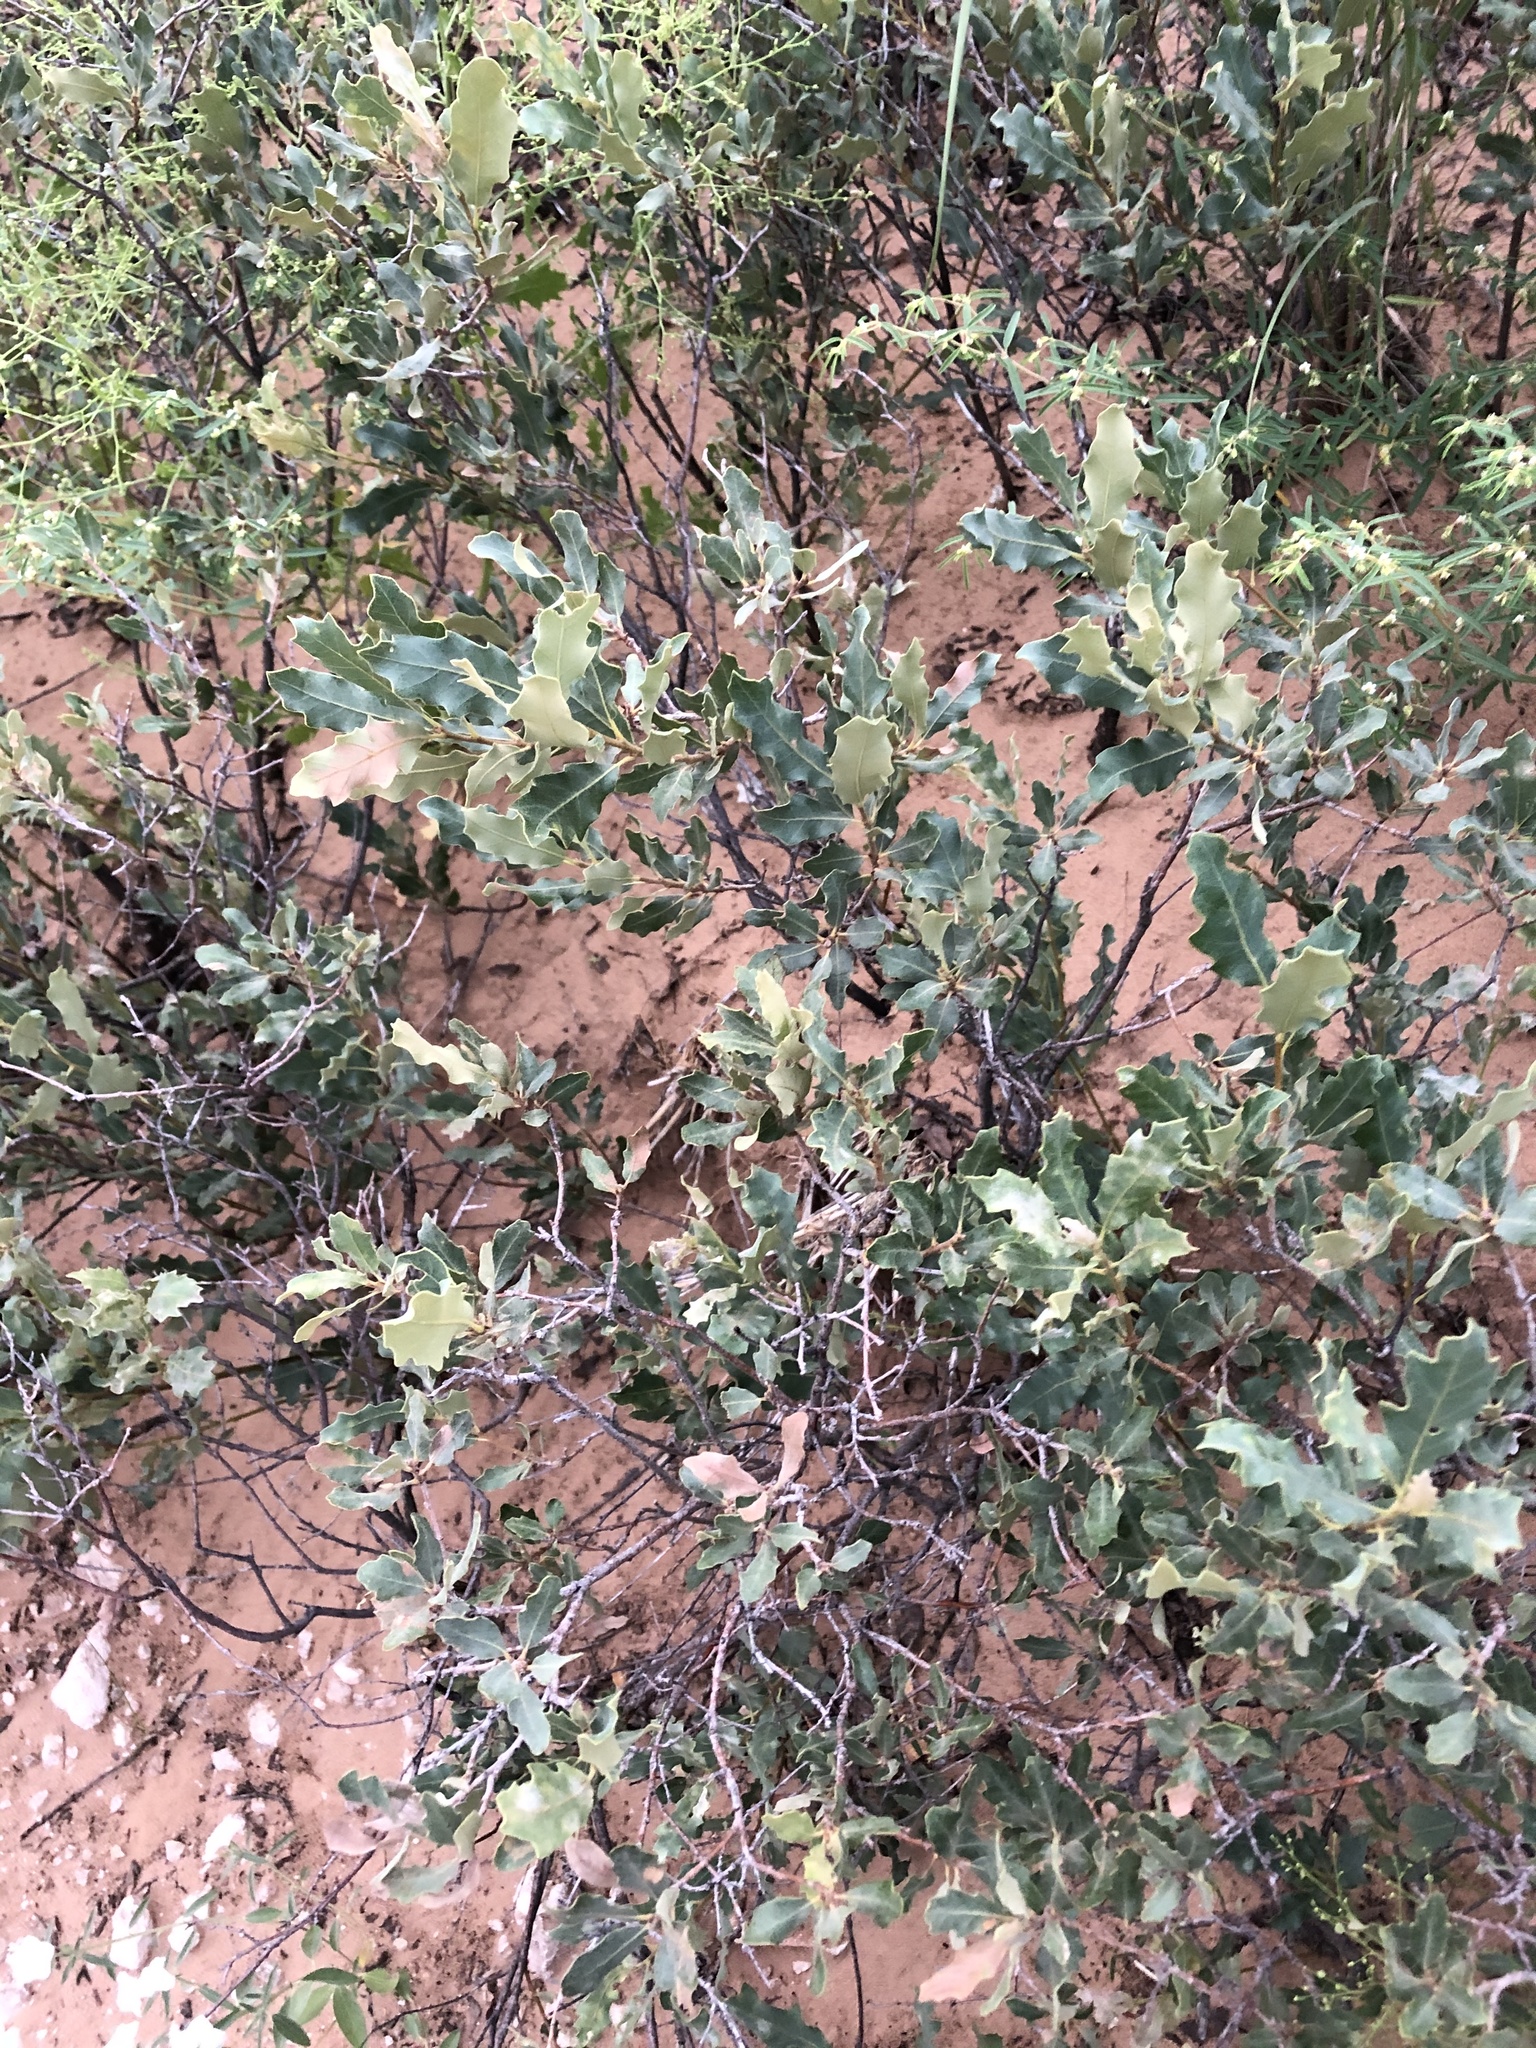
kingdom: Plantae
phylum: Tracheophyta
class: Magnoliopsida
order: Fagales
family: Fagaceae
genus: Quercus
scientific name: Quercus havardii
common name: Shinnery oak
